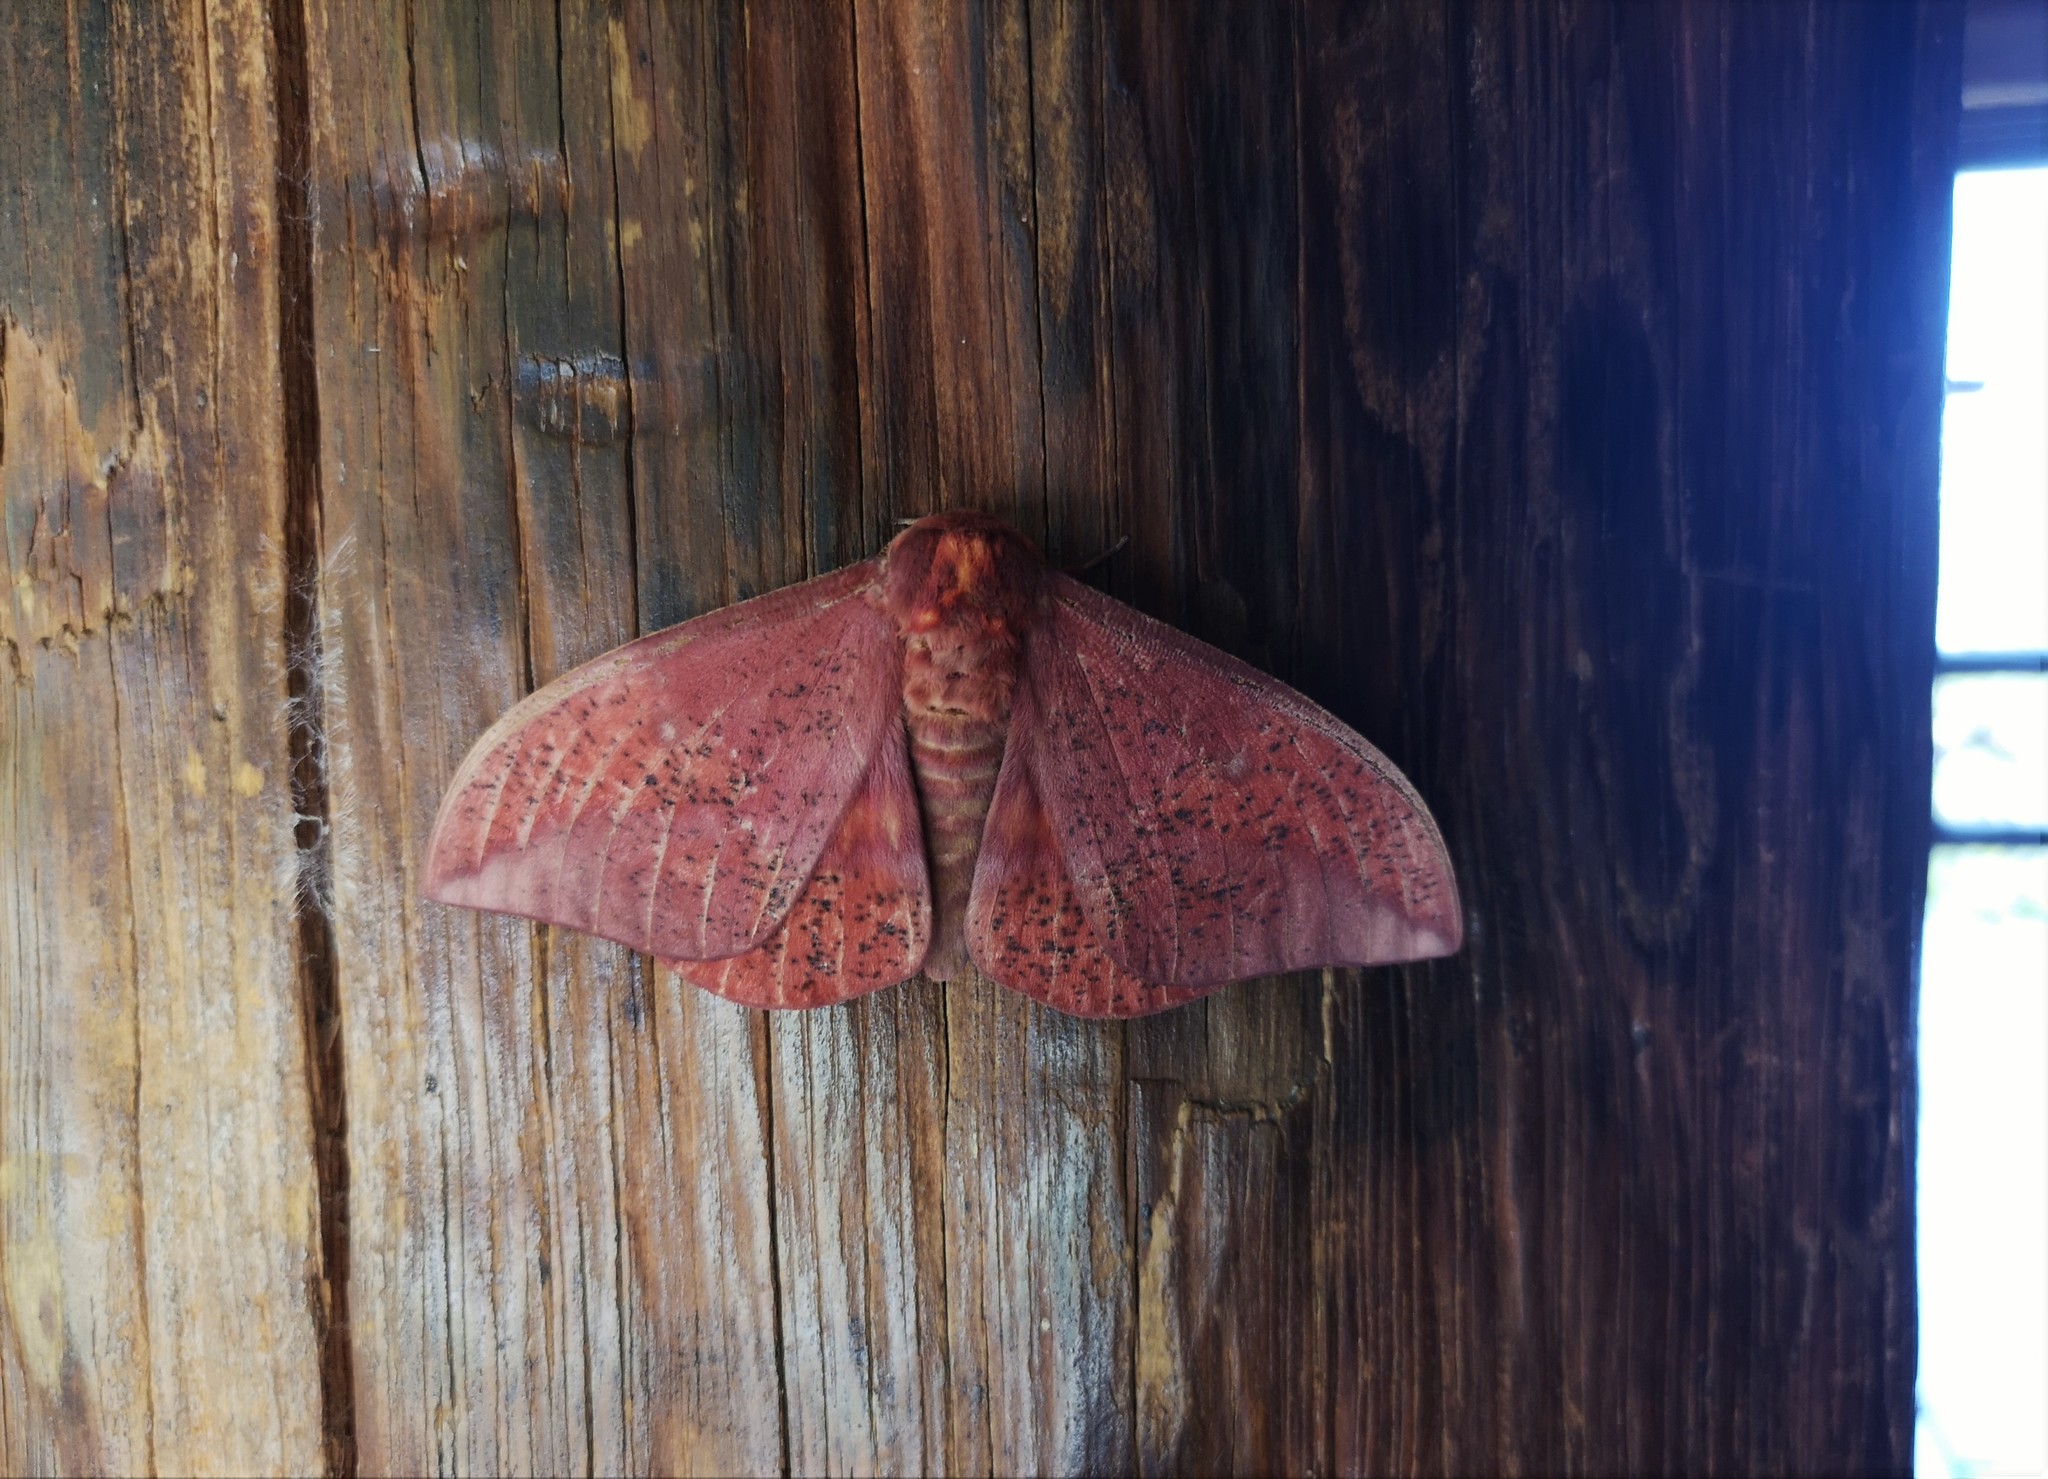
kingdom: Animalia
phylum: Arthropoda
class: Insecta
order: Lepidoptera
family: Saturniidae
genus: Eacles
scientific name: Eacles imperialis
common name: Imperial moth
